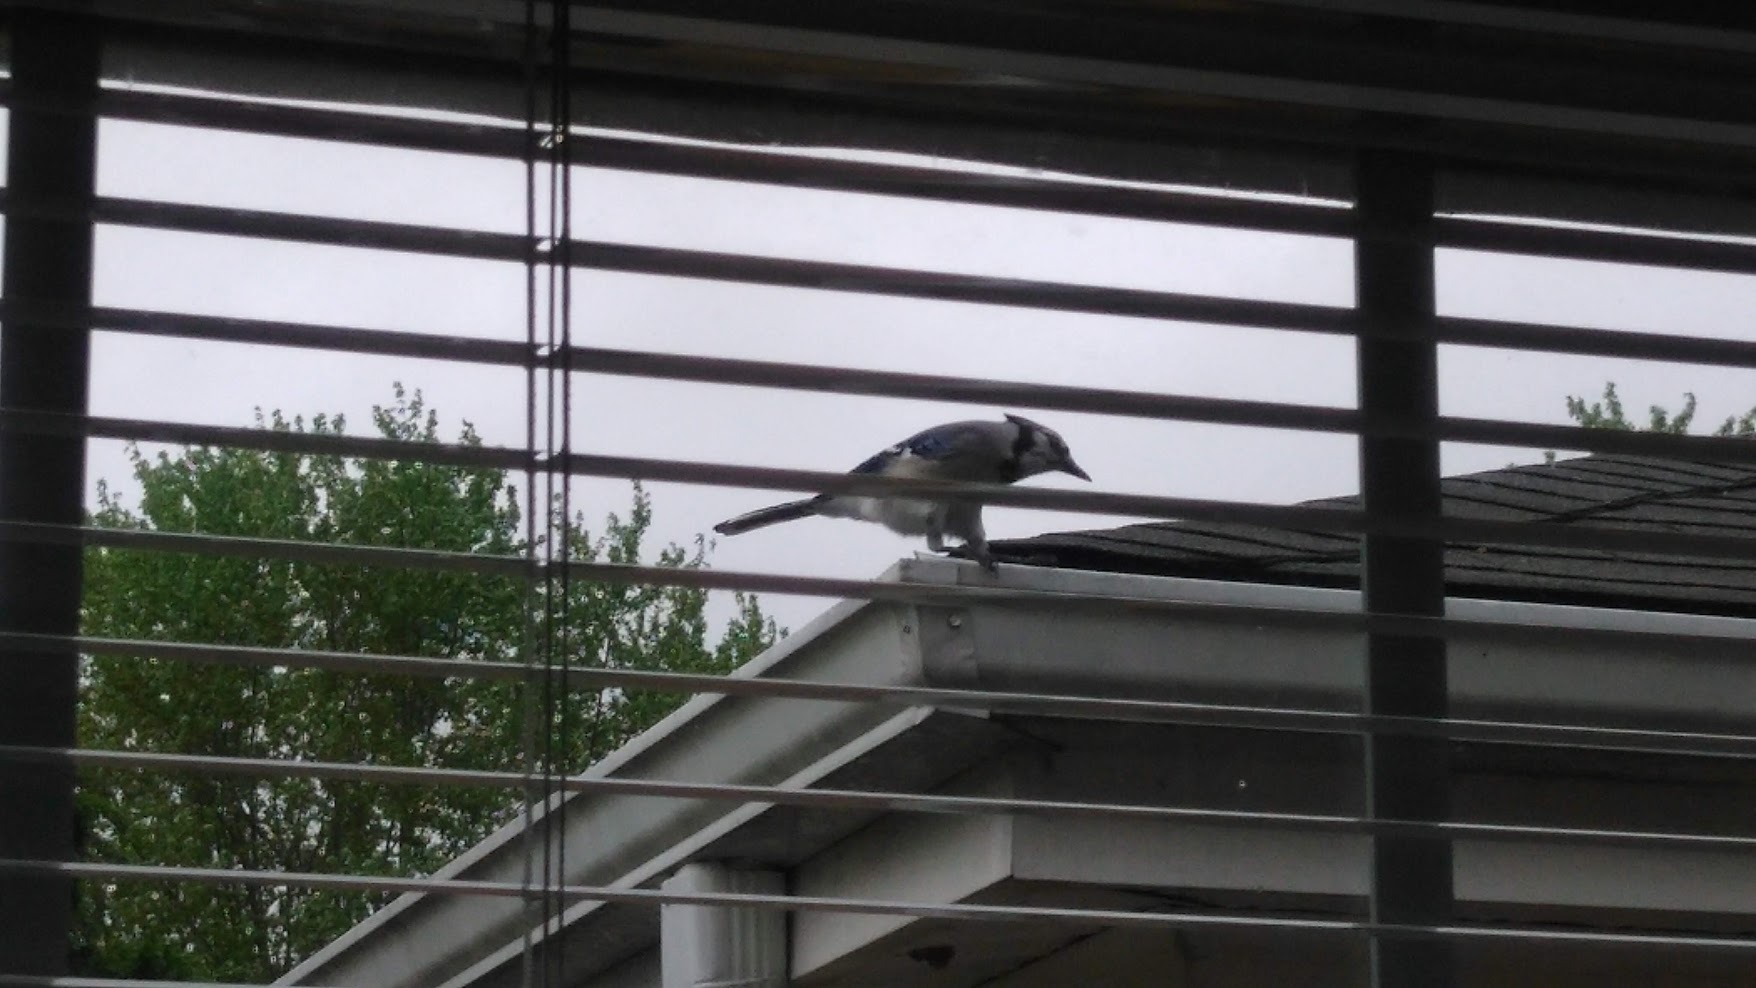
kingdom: Animalia
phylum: Chordata
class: Aves
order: Passeriformes
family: Corvidae
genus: Cyanocitta
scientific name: Cyanocitta cristata
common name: Blue jay
